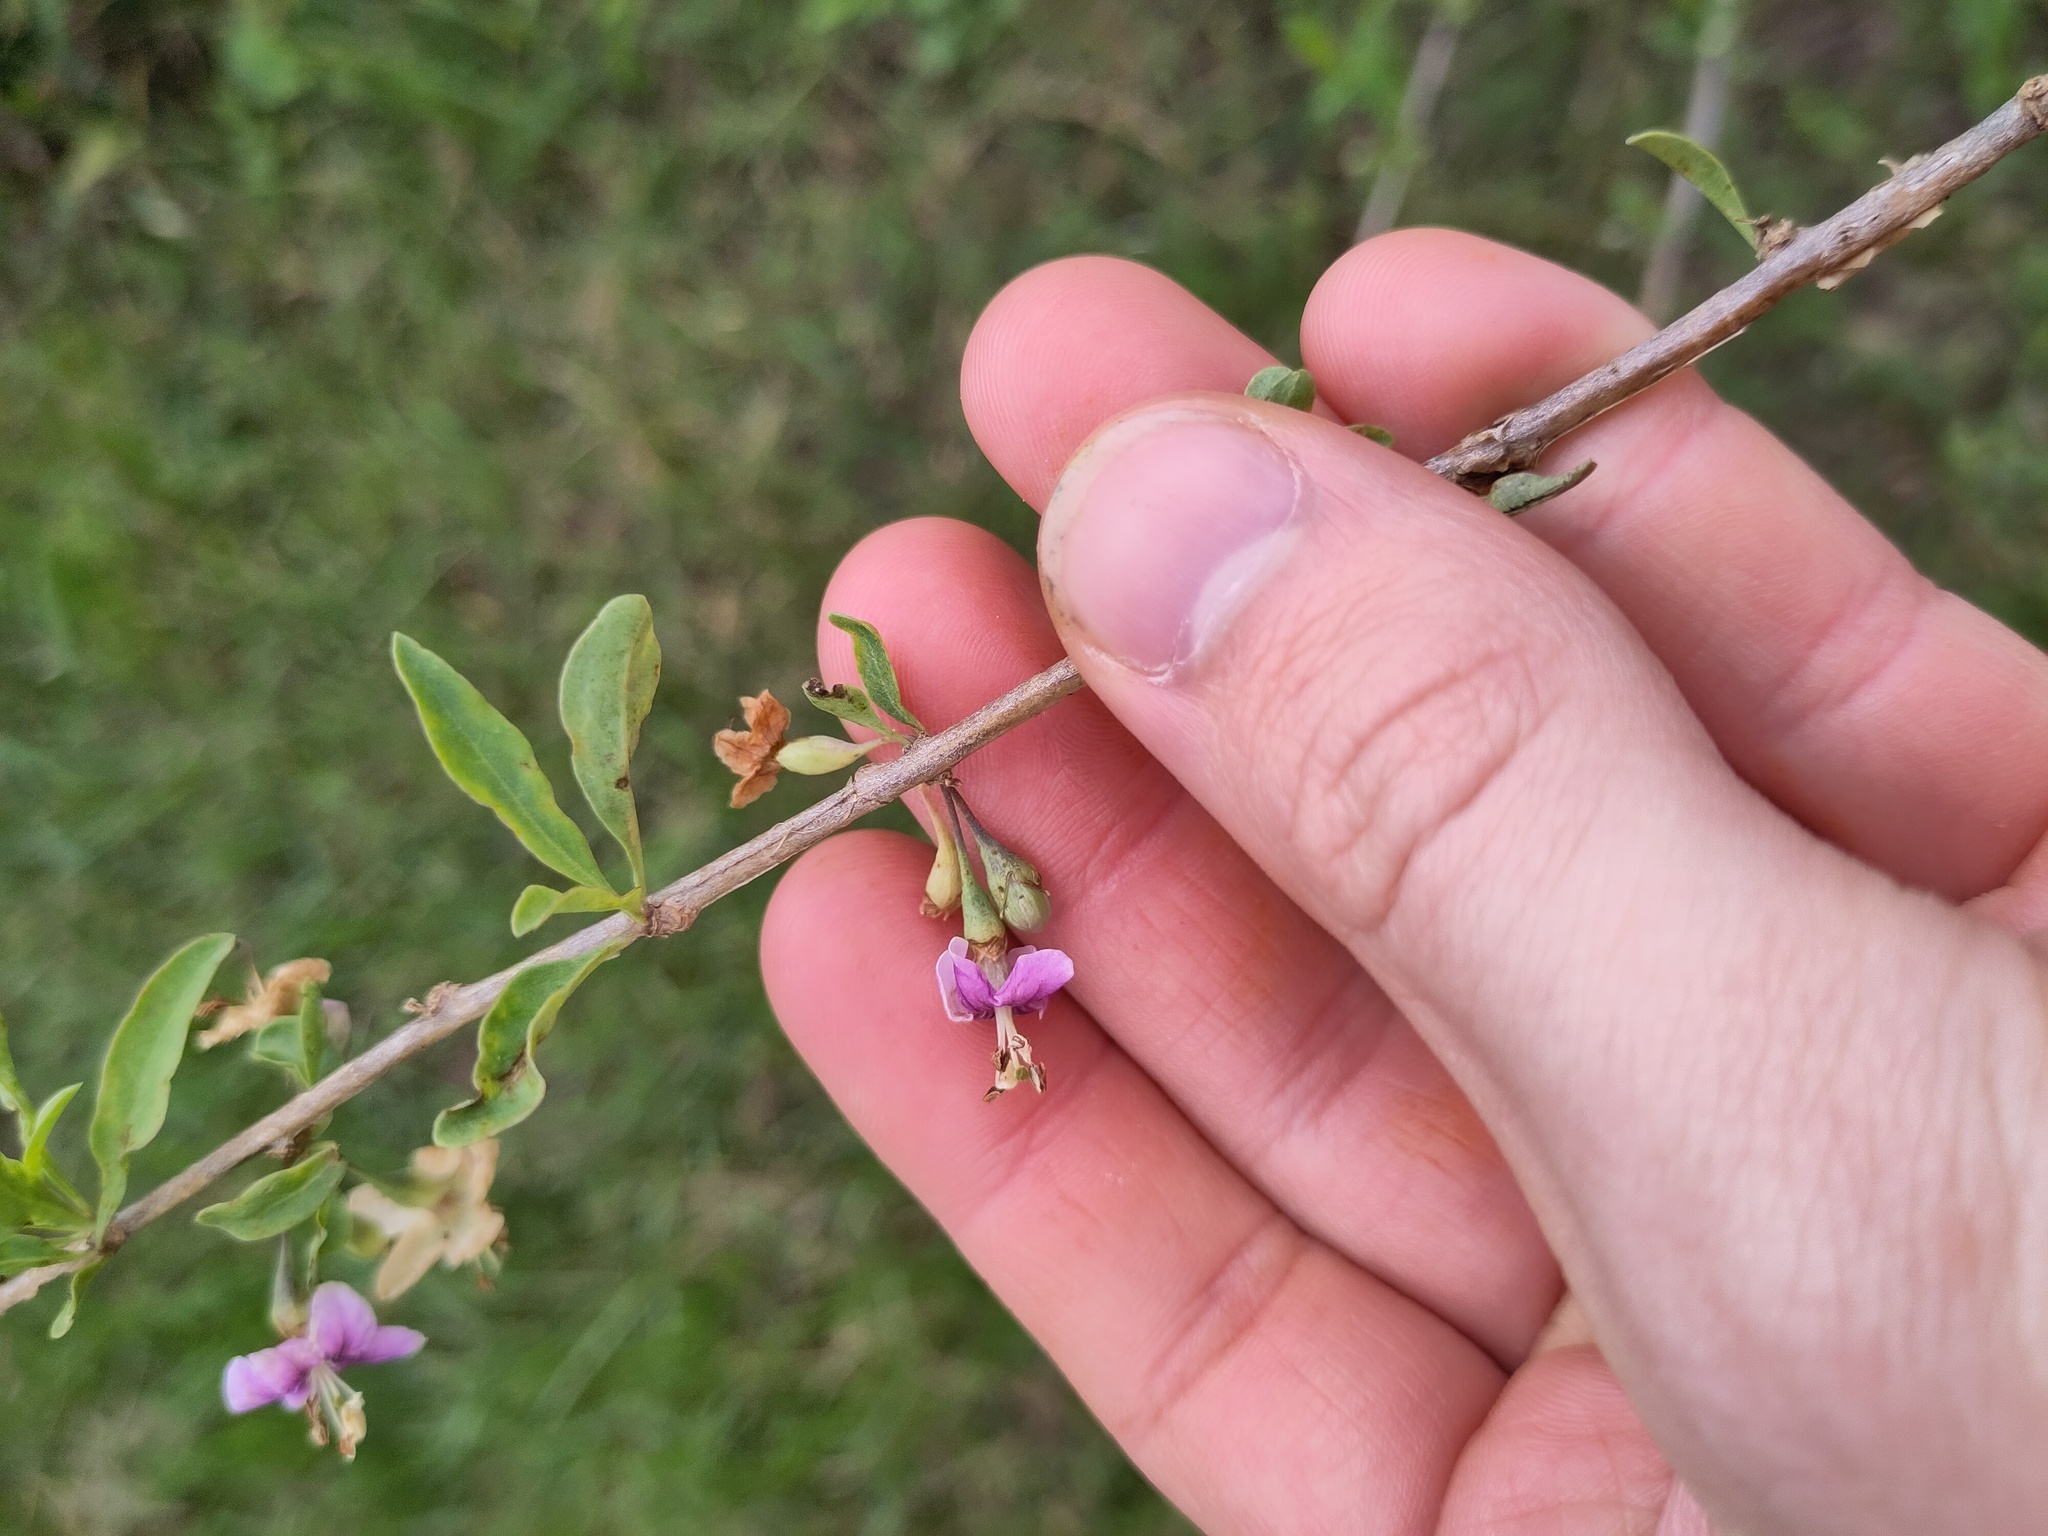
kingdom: Plantae
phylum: Tracheophyta
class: Magnoliopsida
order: Solanales
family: Solanaceae
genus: Lycium
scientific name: Lycium barbarum
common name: Duke of argyll's teaplant
